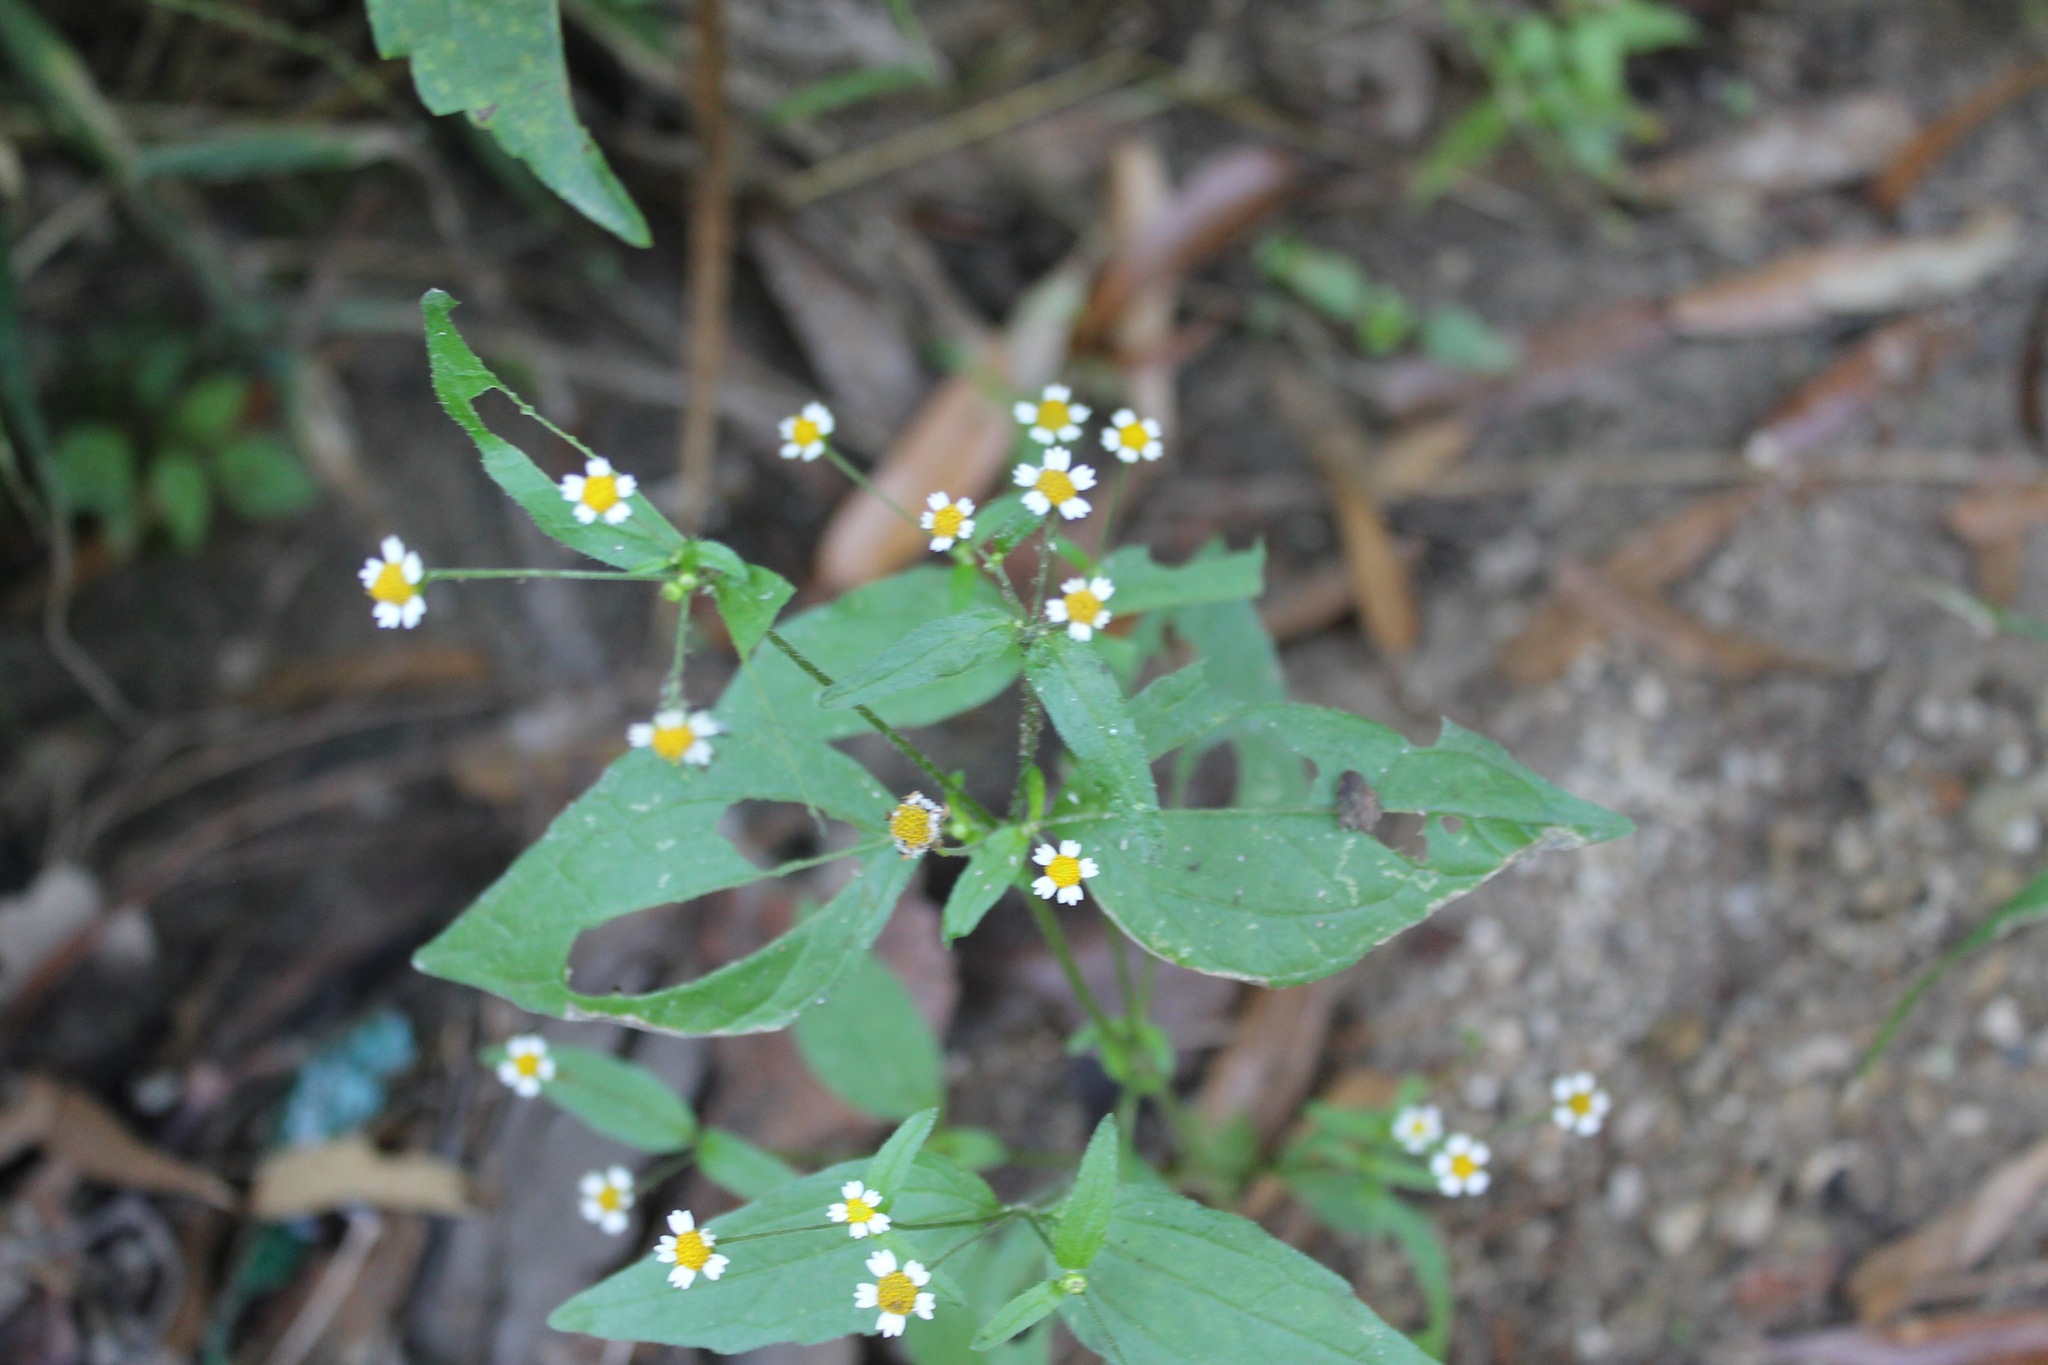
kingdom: Plantae
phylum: Tracheophyta
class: Magnoliopsida
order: Asterales
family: Asteraceae
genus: Galinsoga
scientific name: Galinsoga parviflora
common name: Gallant soldier
